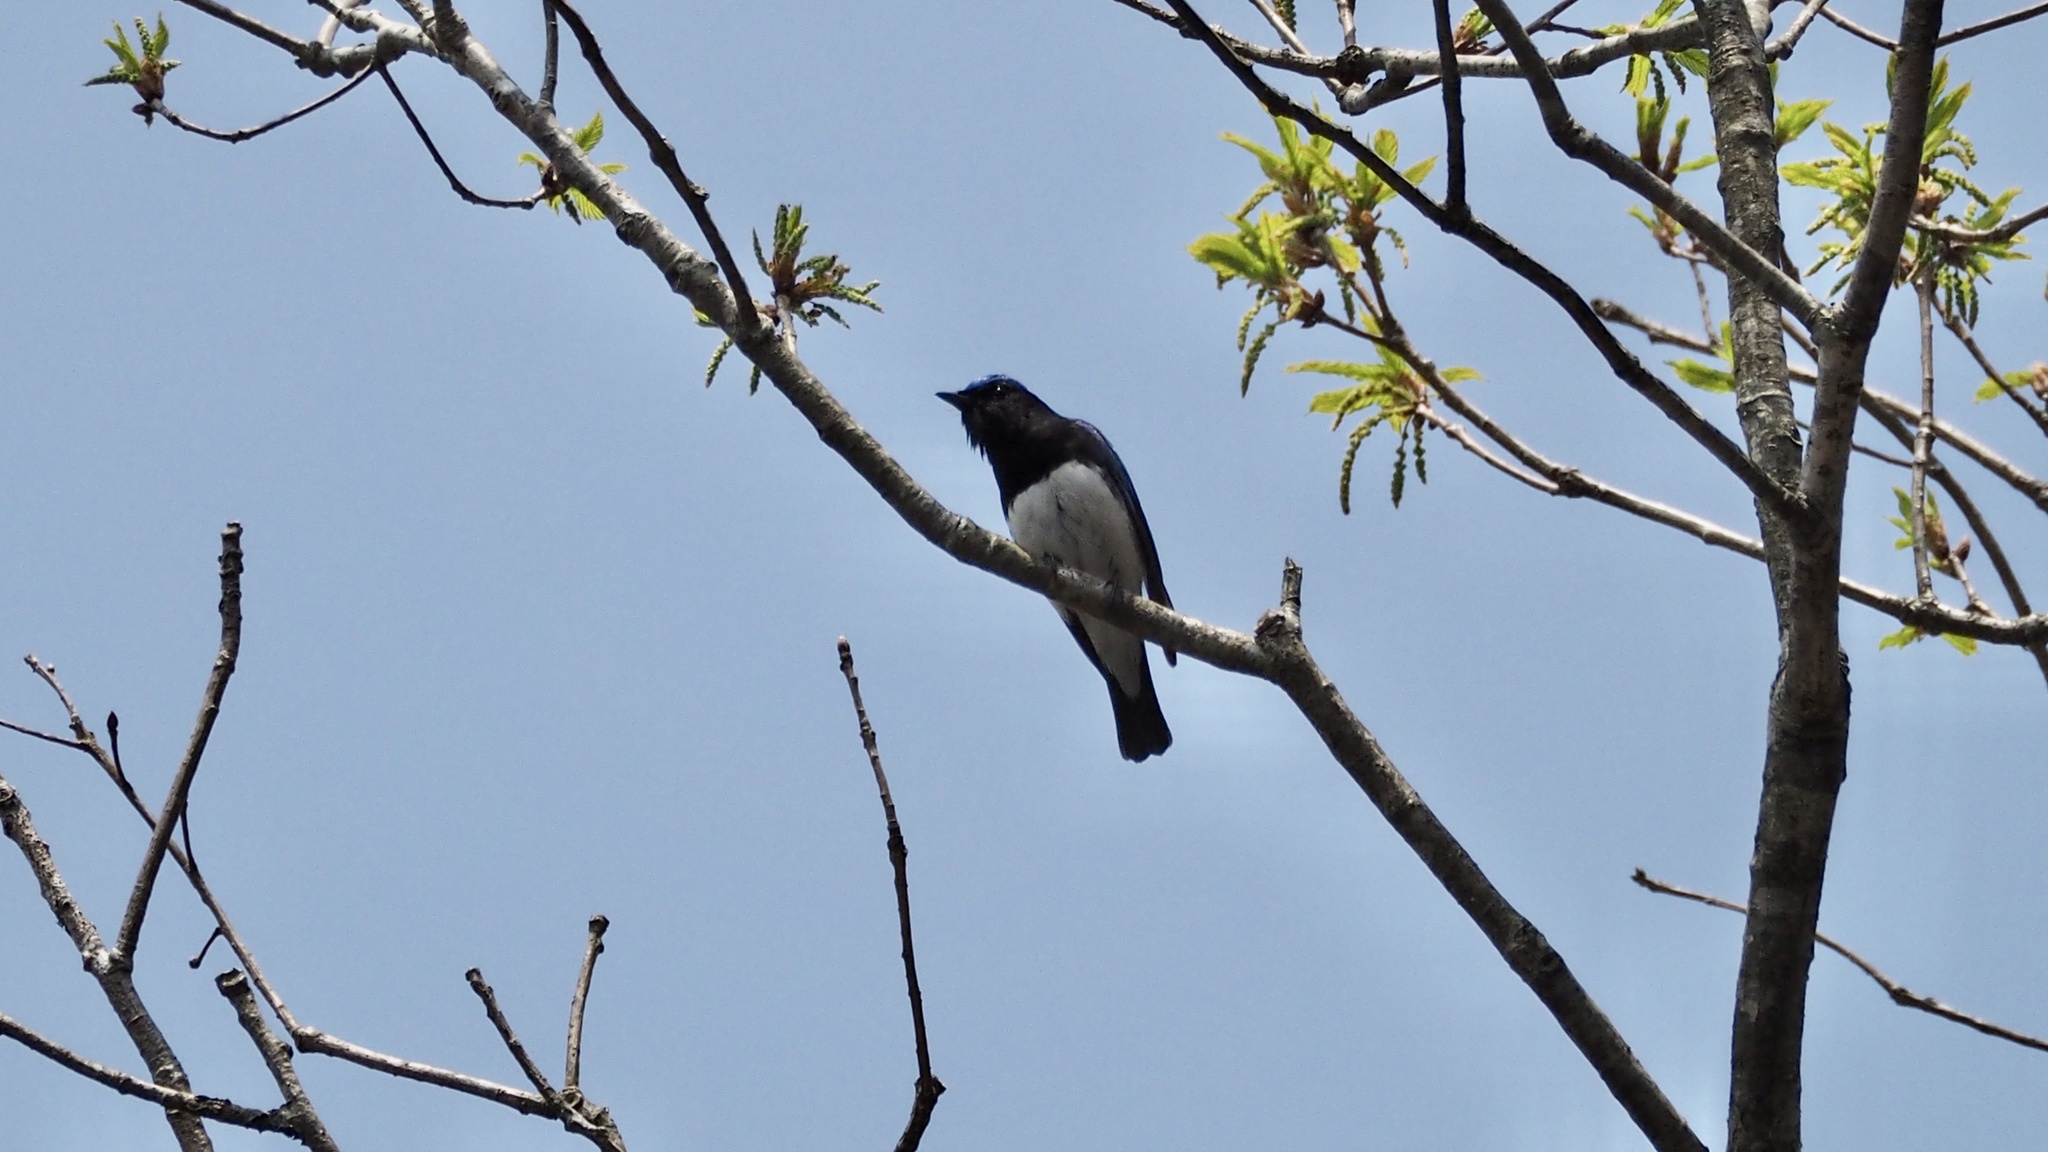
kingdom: Animalia
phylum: Chordata
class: Aves
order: Passeriformes
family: Muscicapidae
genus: Cyanoptila
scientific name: Cyanoptila cyanomelana
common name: Blue-and-white flycatcher
